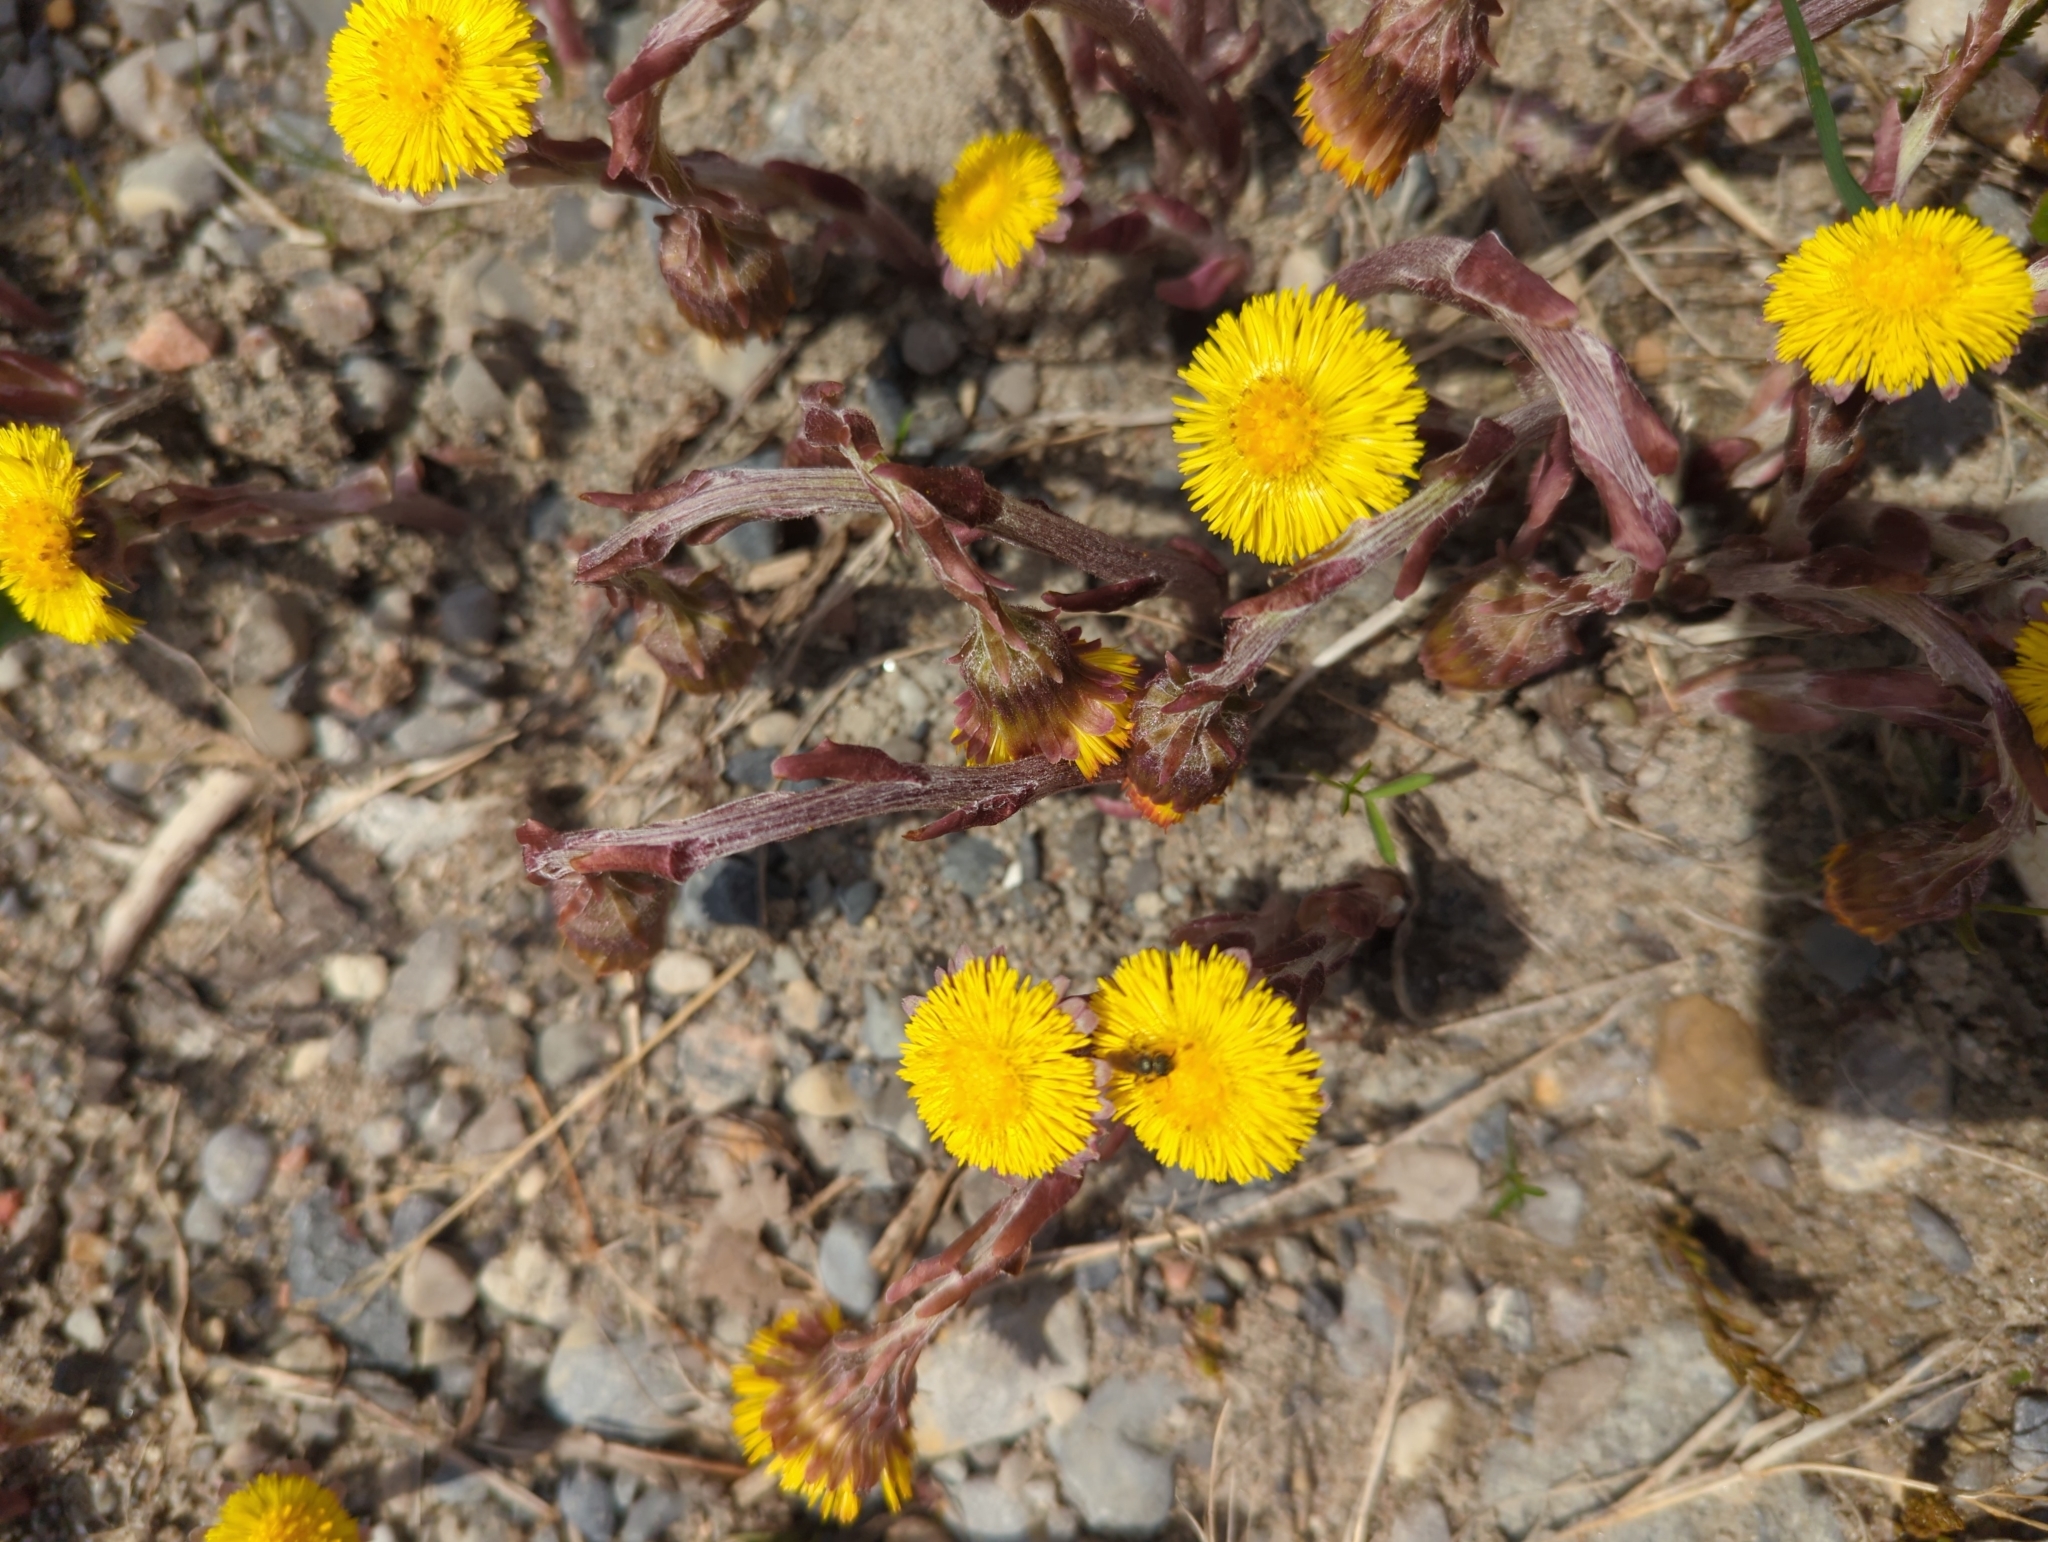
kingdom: Plantae
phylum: Tracheophyta
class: Magnoliopsida
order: Asterales
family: Asteraceae
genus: Tussilago
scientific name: Tussilago farfara
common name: Coltsfoot
